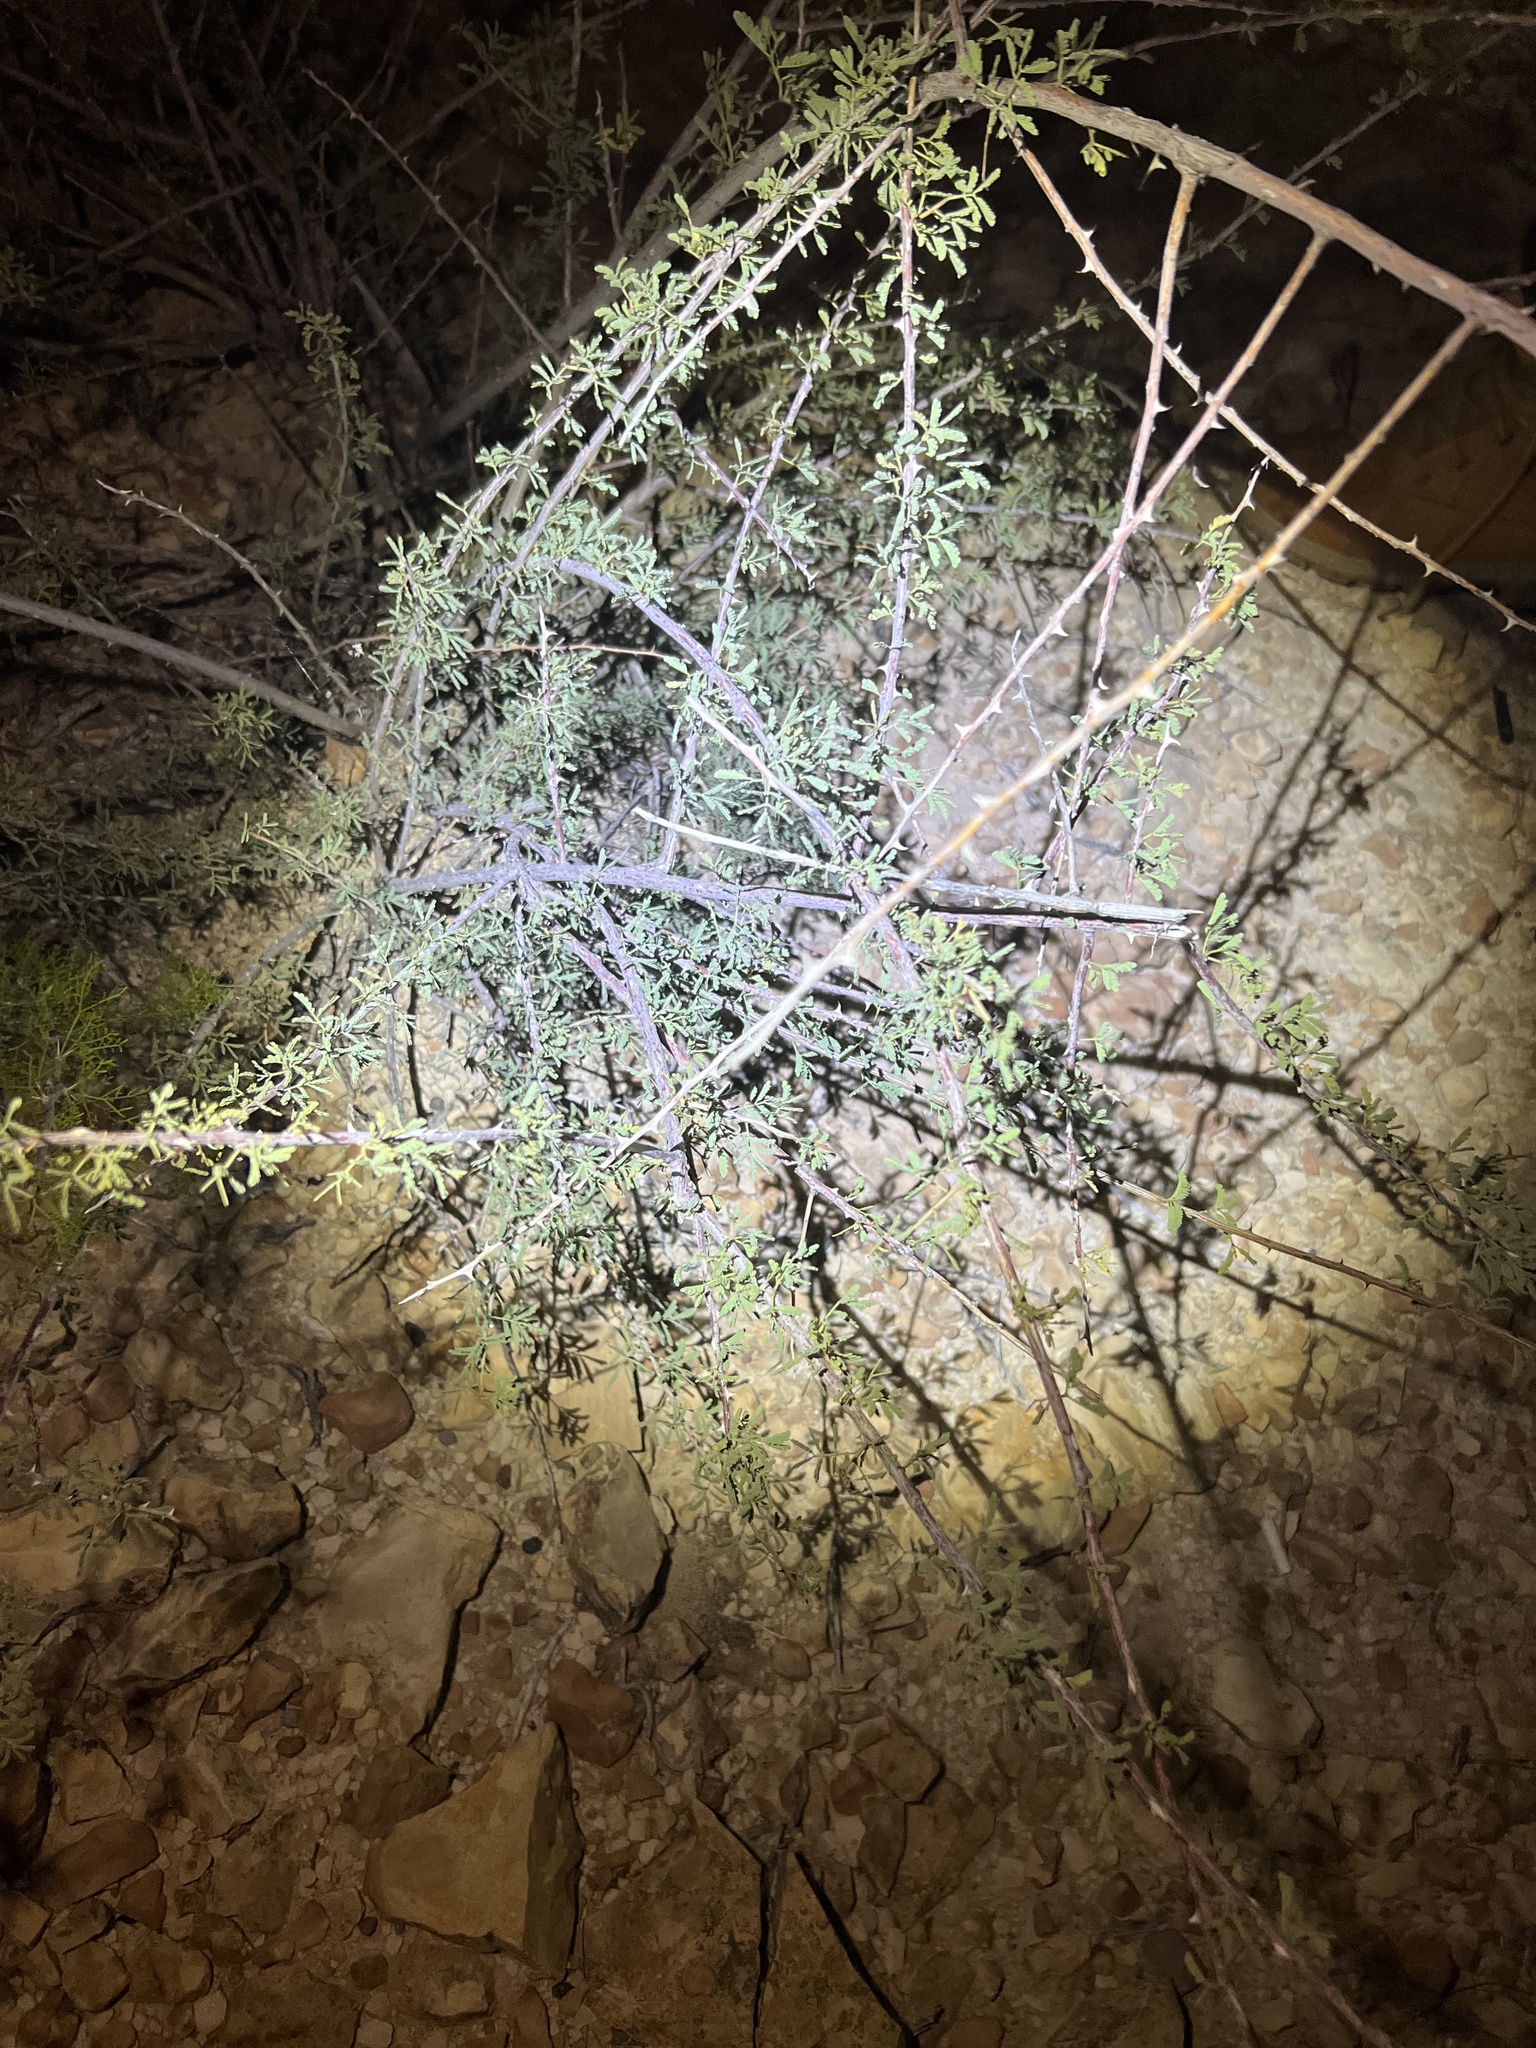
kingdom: Plantae
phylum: Tracheophyta
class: Magnoliopsida
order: Fabales
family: Fabaceae
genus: Senegalia
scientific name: Senegalia greggii
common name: Texas-mimosa
